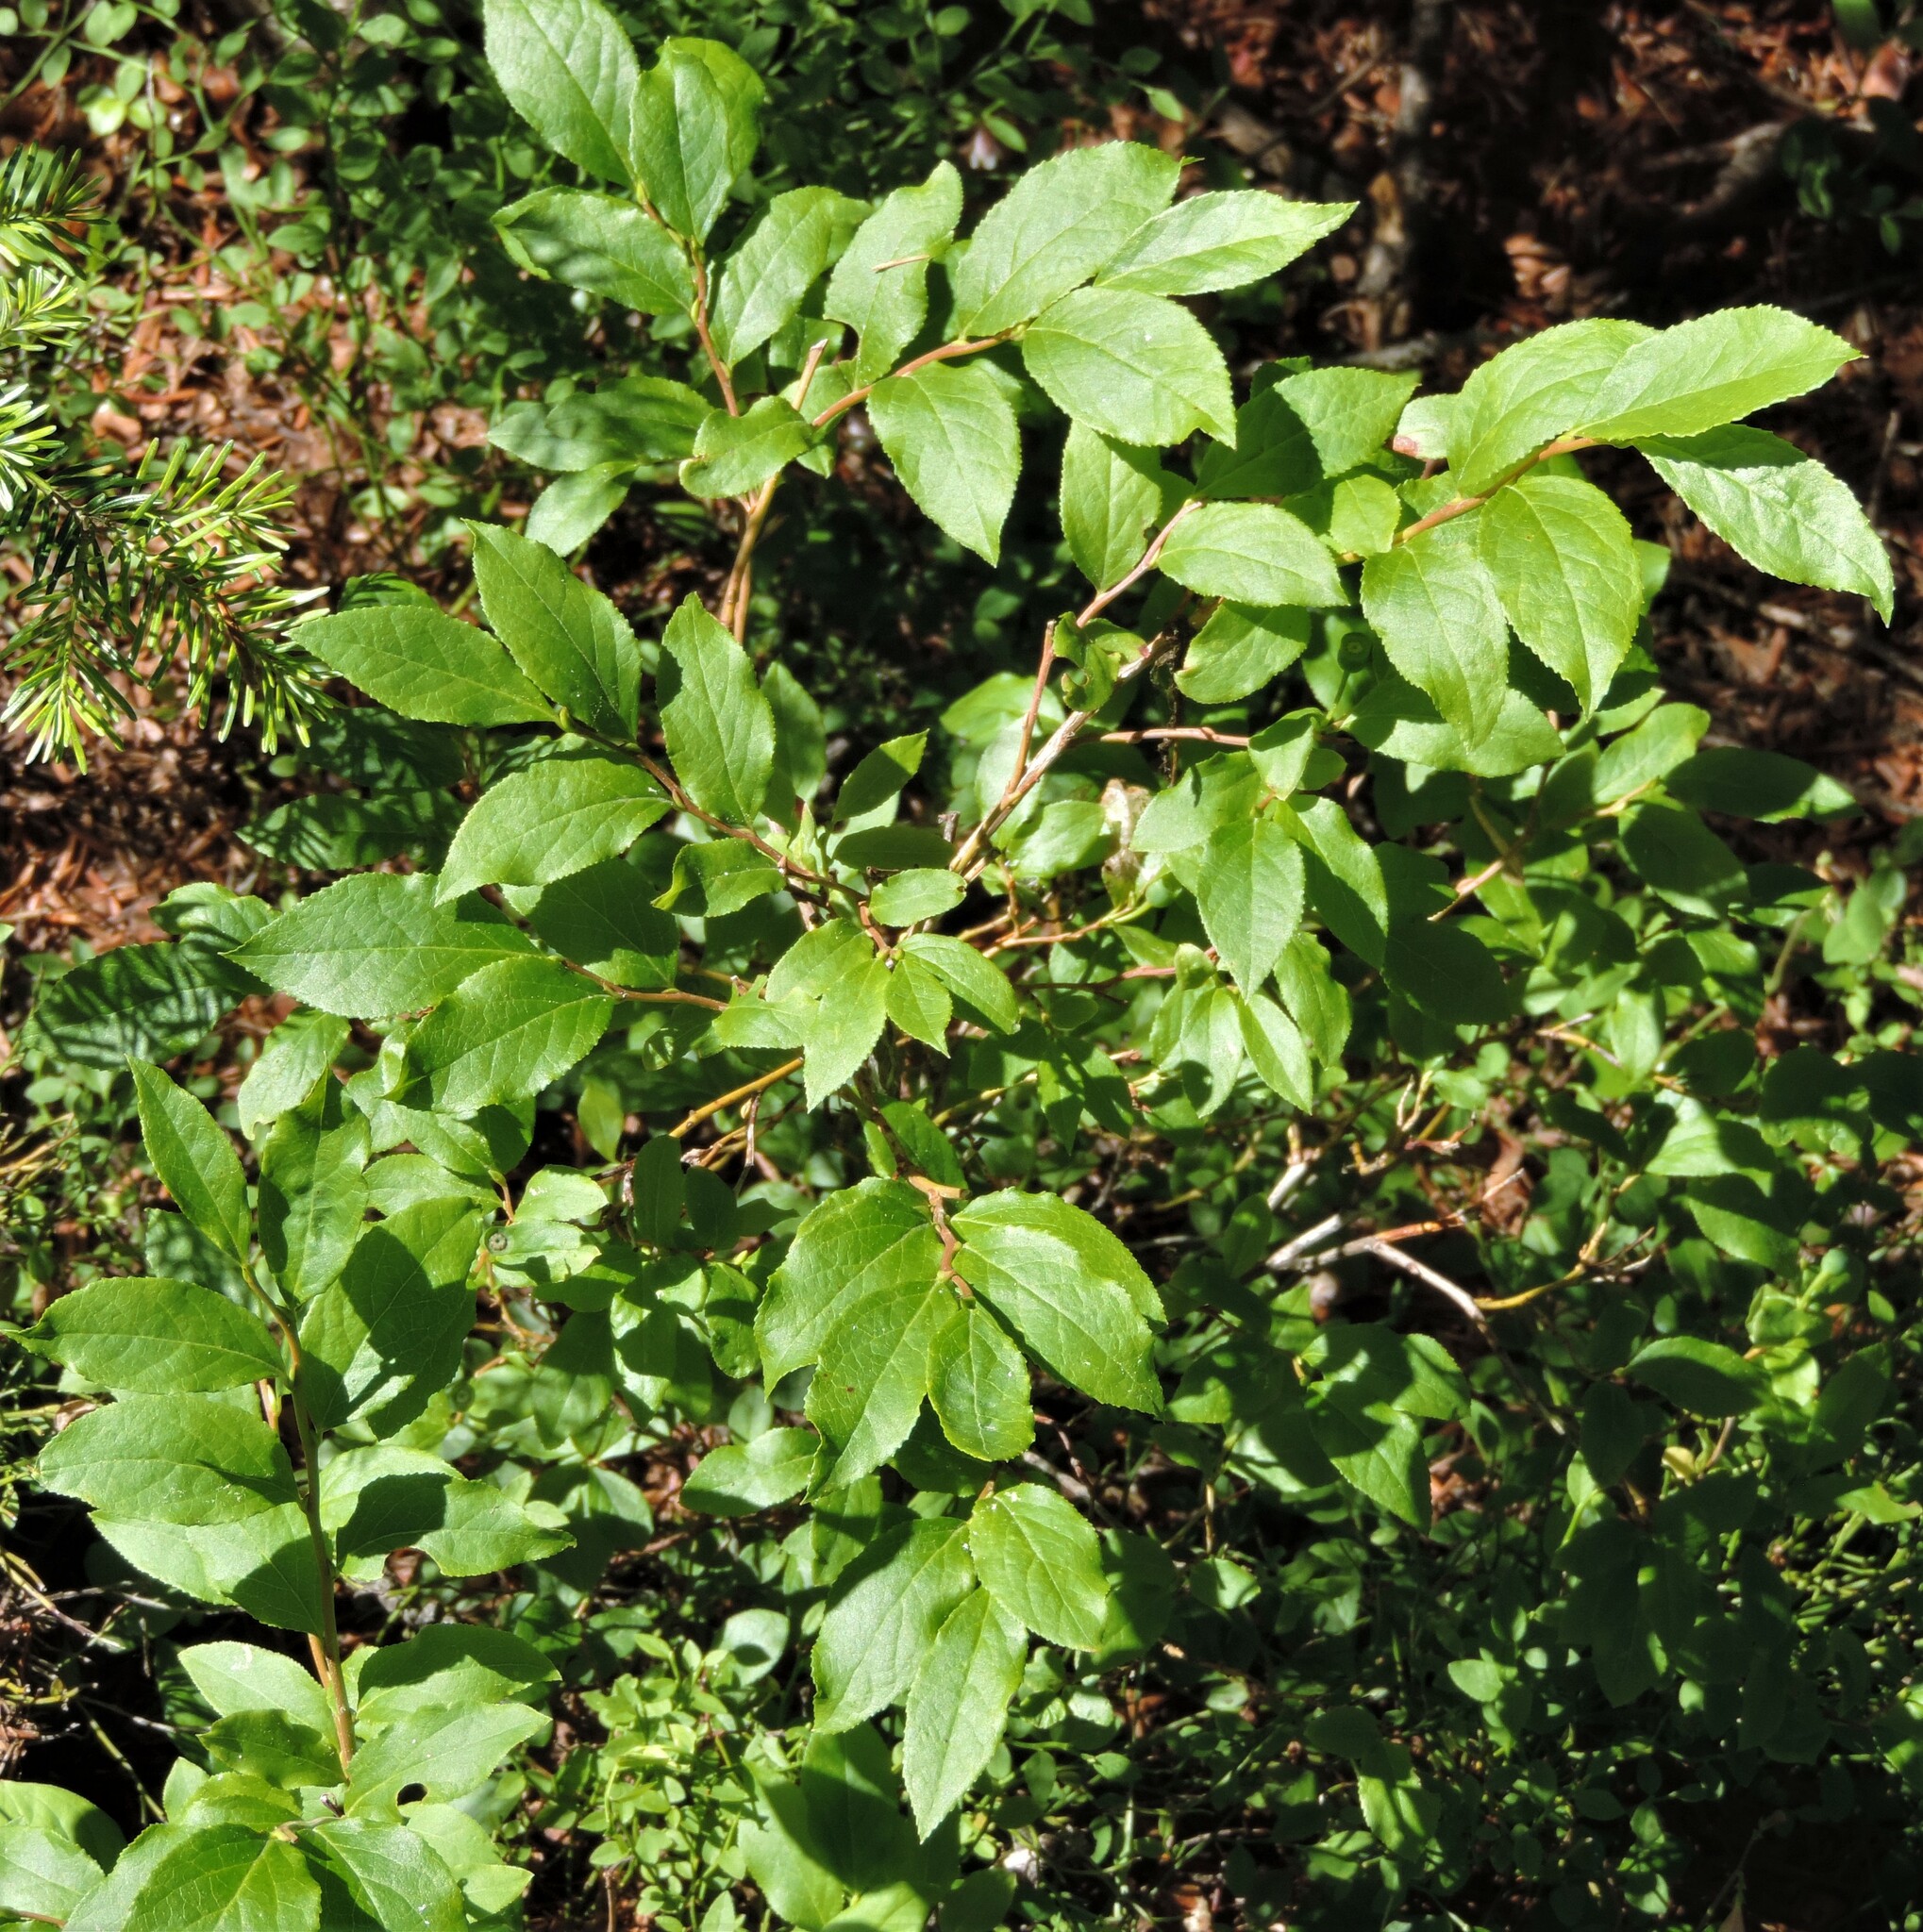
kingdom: Plantae
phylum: Tracheophyta
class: Magnoliopsida
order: Ericales
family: Ericaceae
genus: Vaccinium
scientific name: Vaccinium membranaceum
